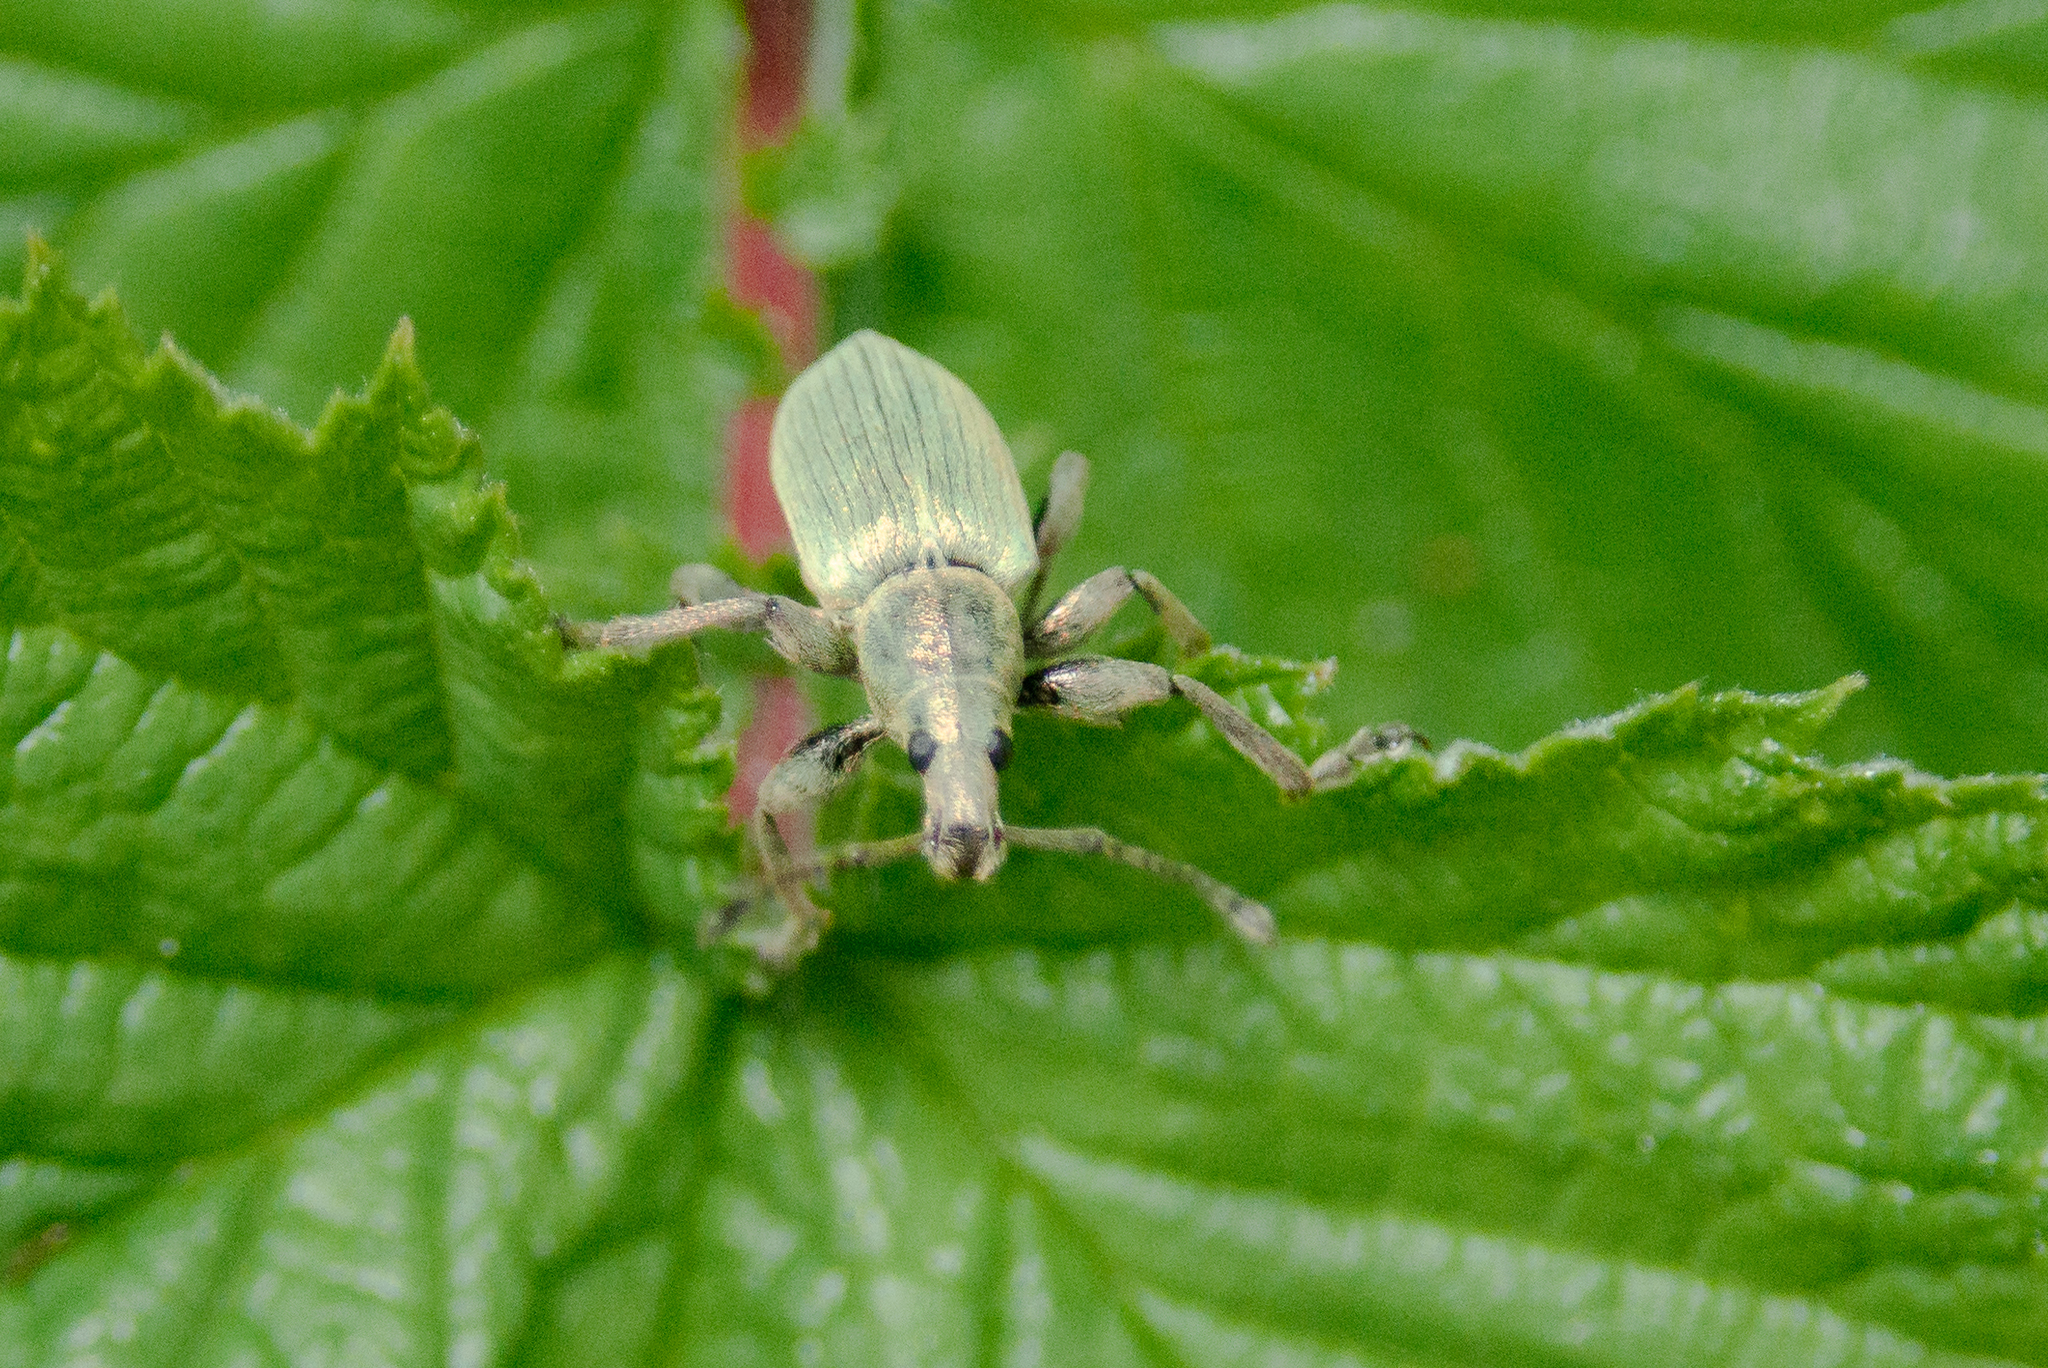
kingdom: Animalia
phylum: Arthropoda
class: Insecta
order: Coleoptera
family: Curculionidae
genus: Phyllobius
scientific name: Phyllobius pomaceus
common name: Green nettle weevil
